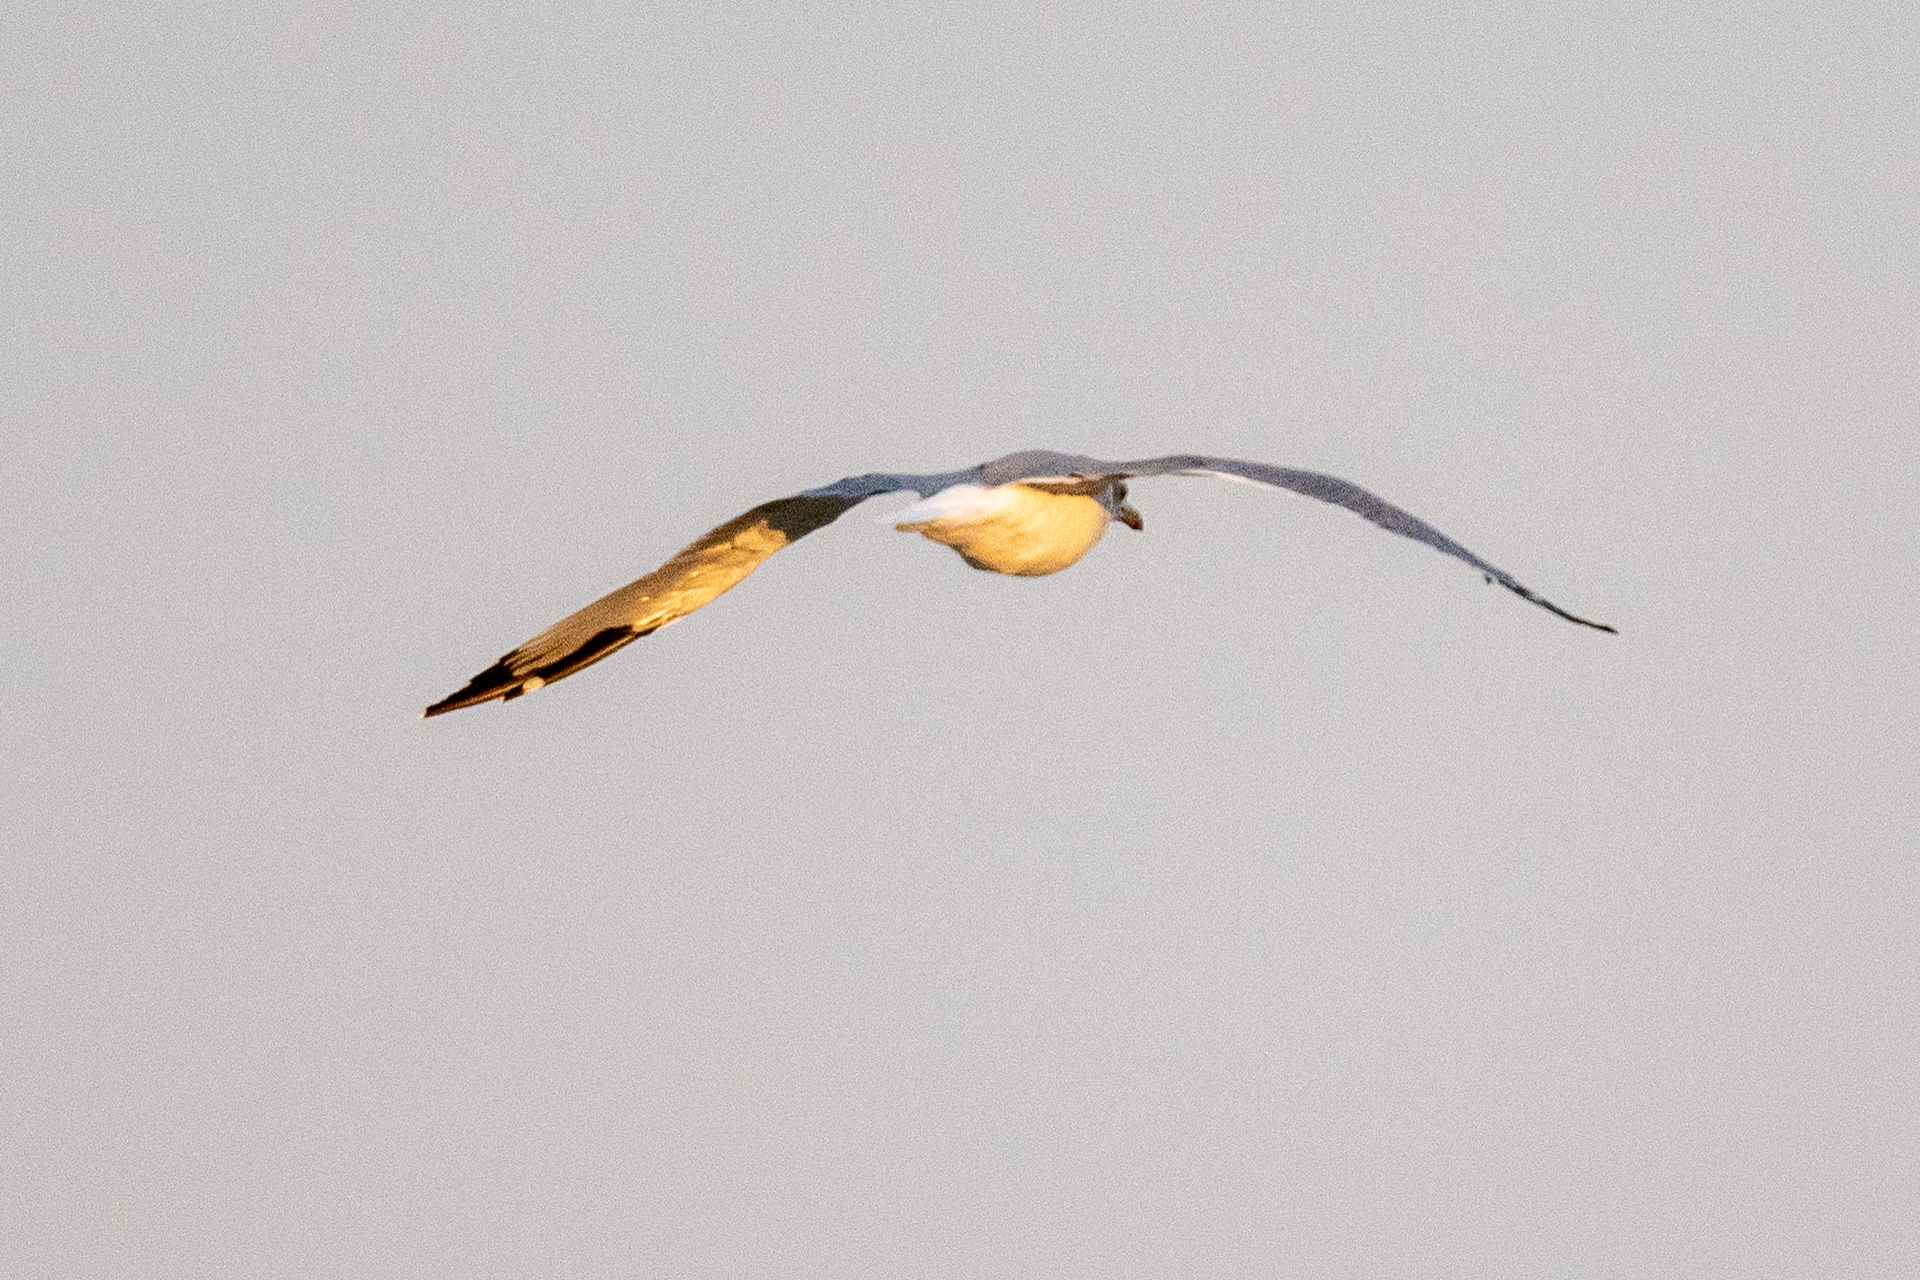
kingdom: Animalia
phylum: Chordata
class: Aves
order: Charadriiformes
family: Laridae
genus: Larus
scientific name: Larus californicus
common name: California gull
